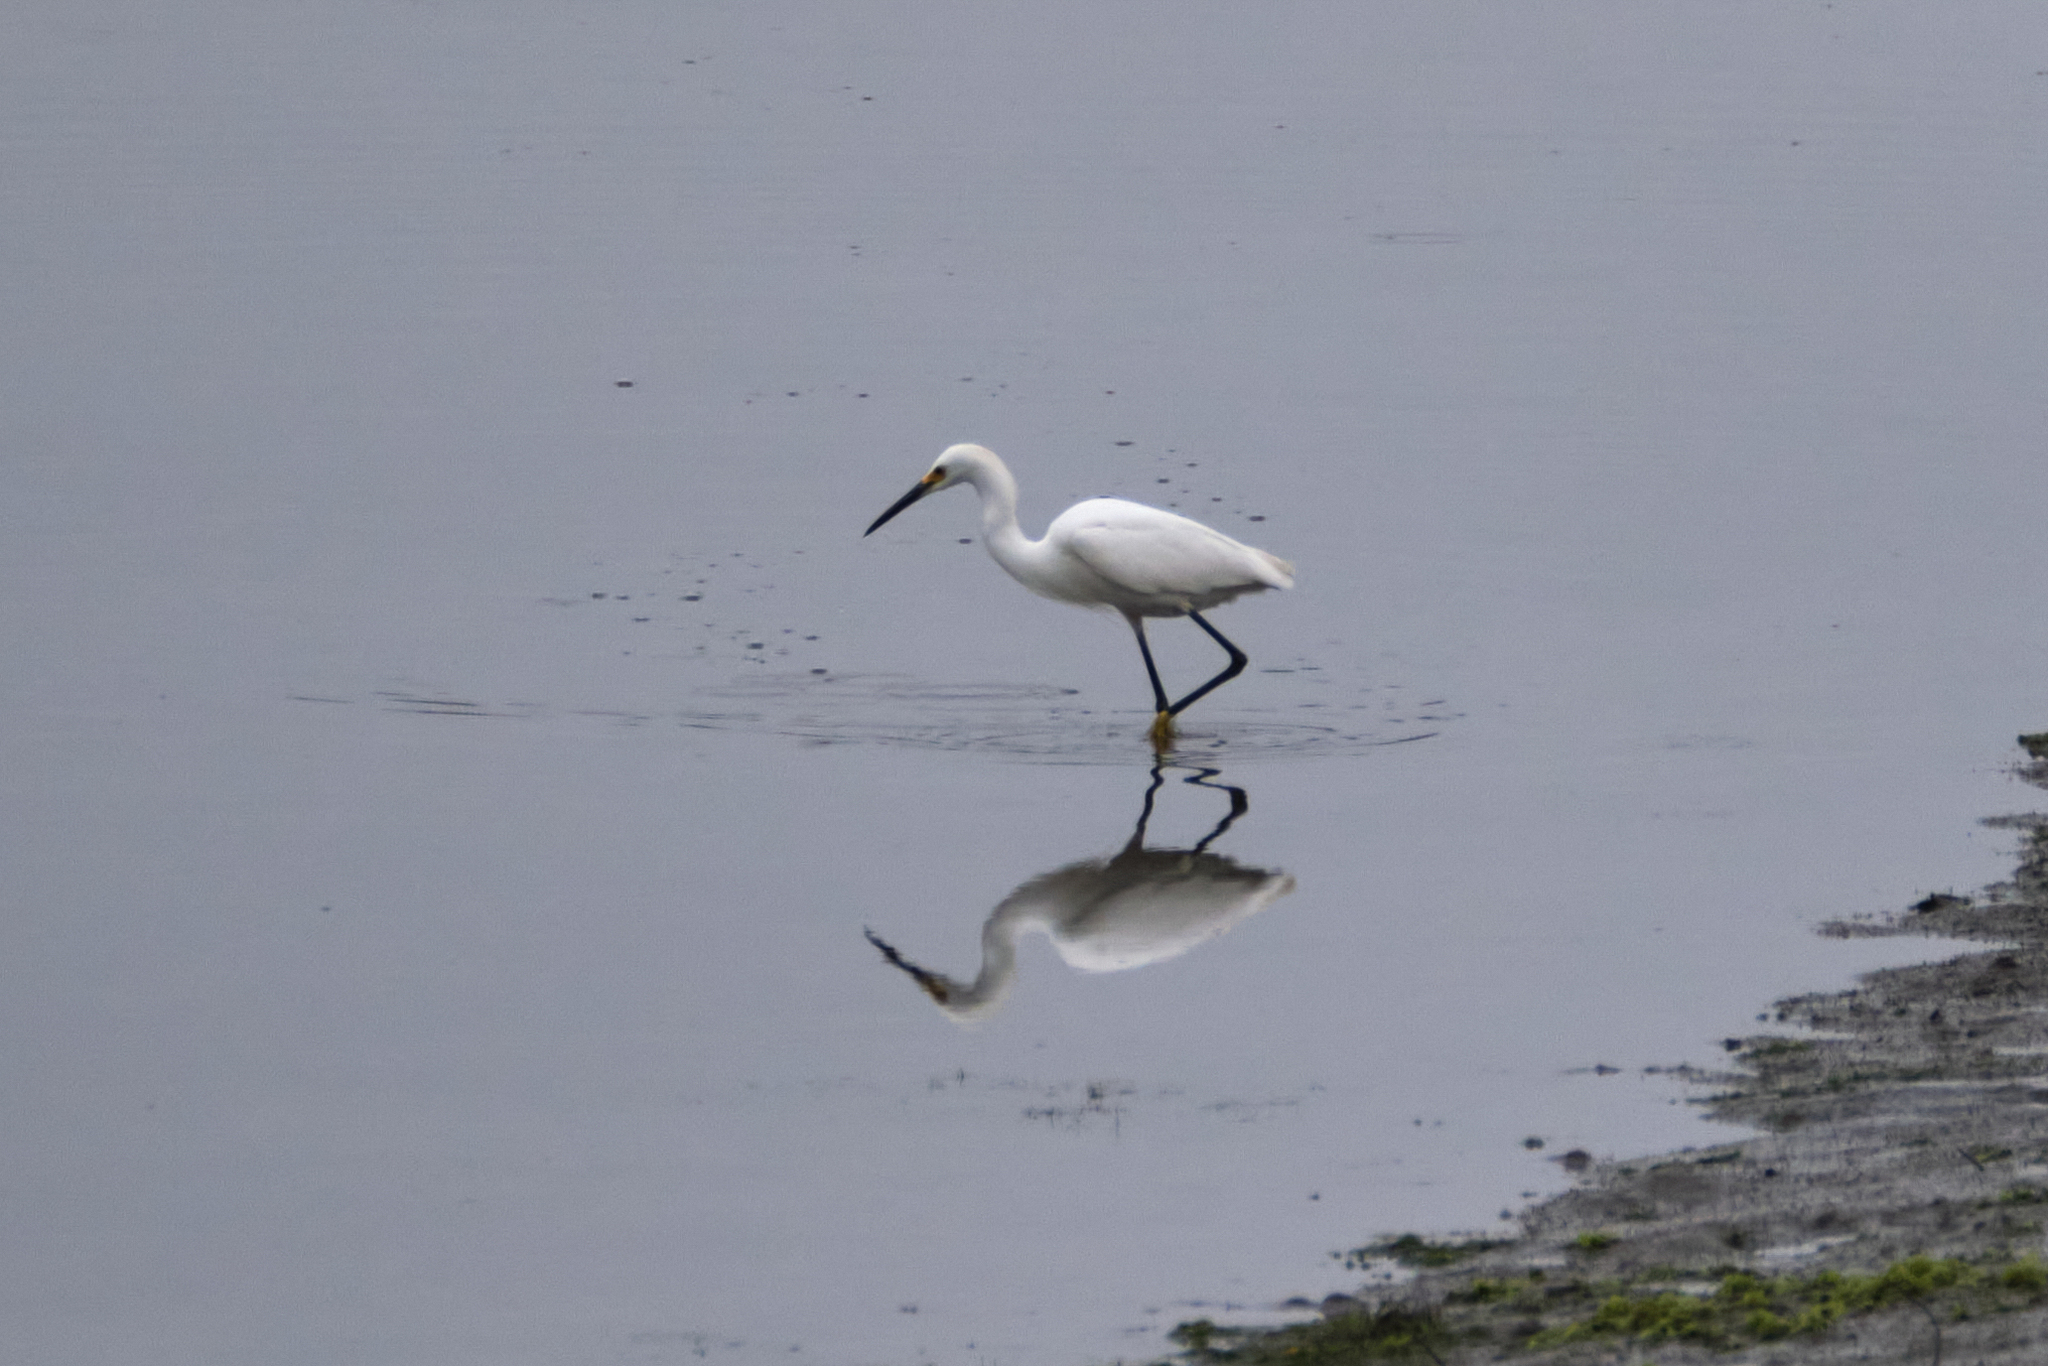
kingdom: Animalia
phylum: Chordata
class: Aves
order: Pelecaniformes
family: Ardeidae
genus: Egretta
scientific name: Egretta thula
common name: Snowy egret
